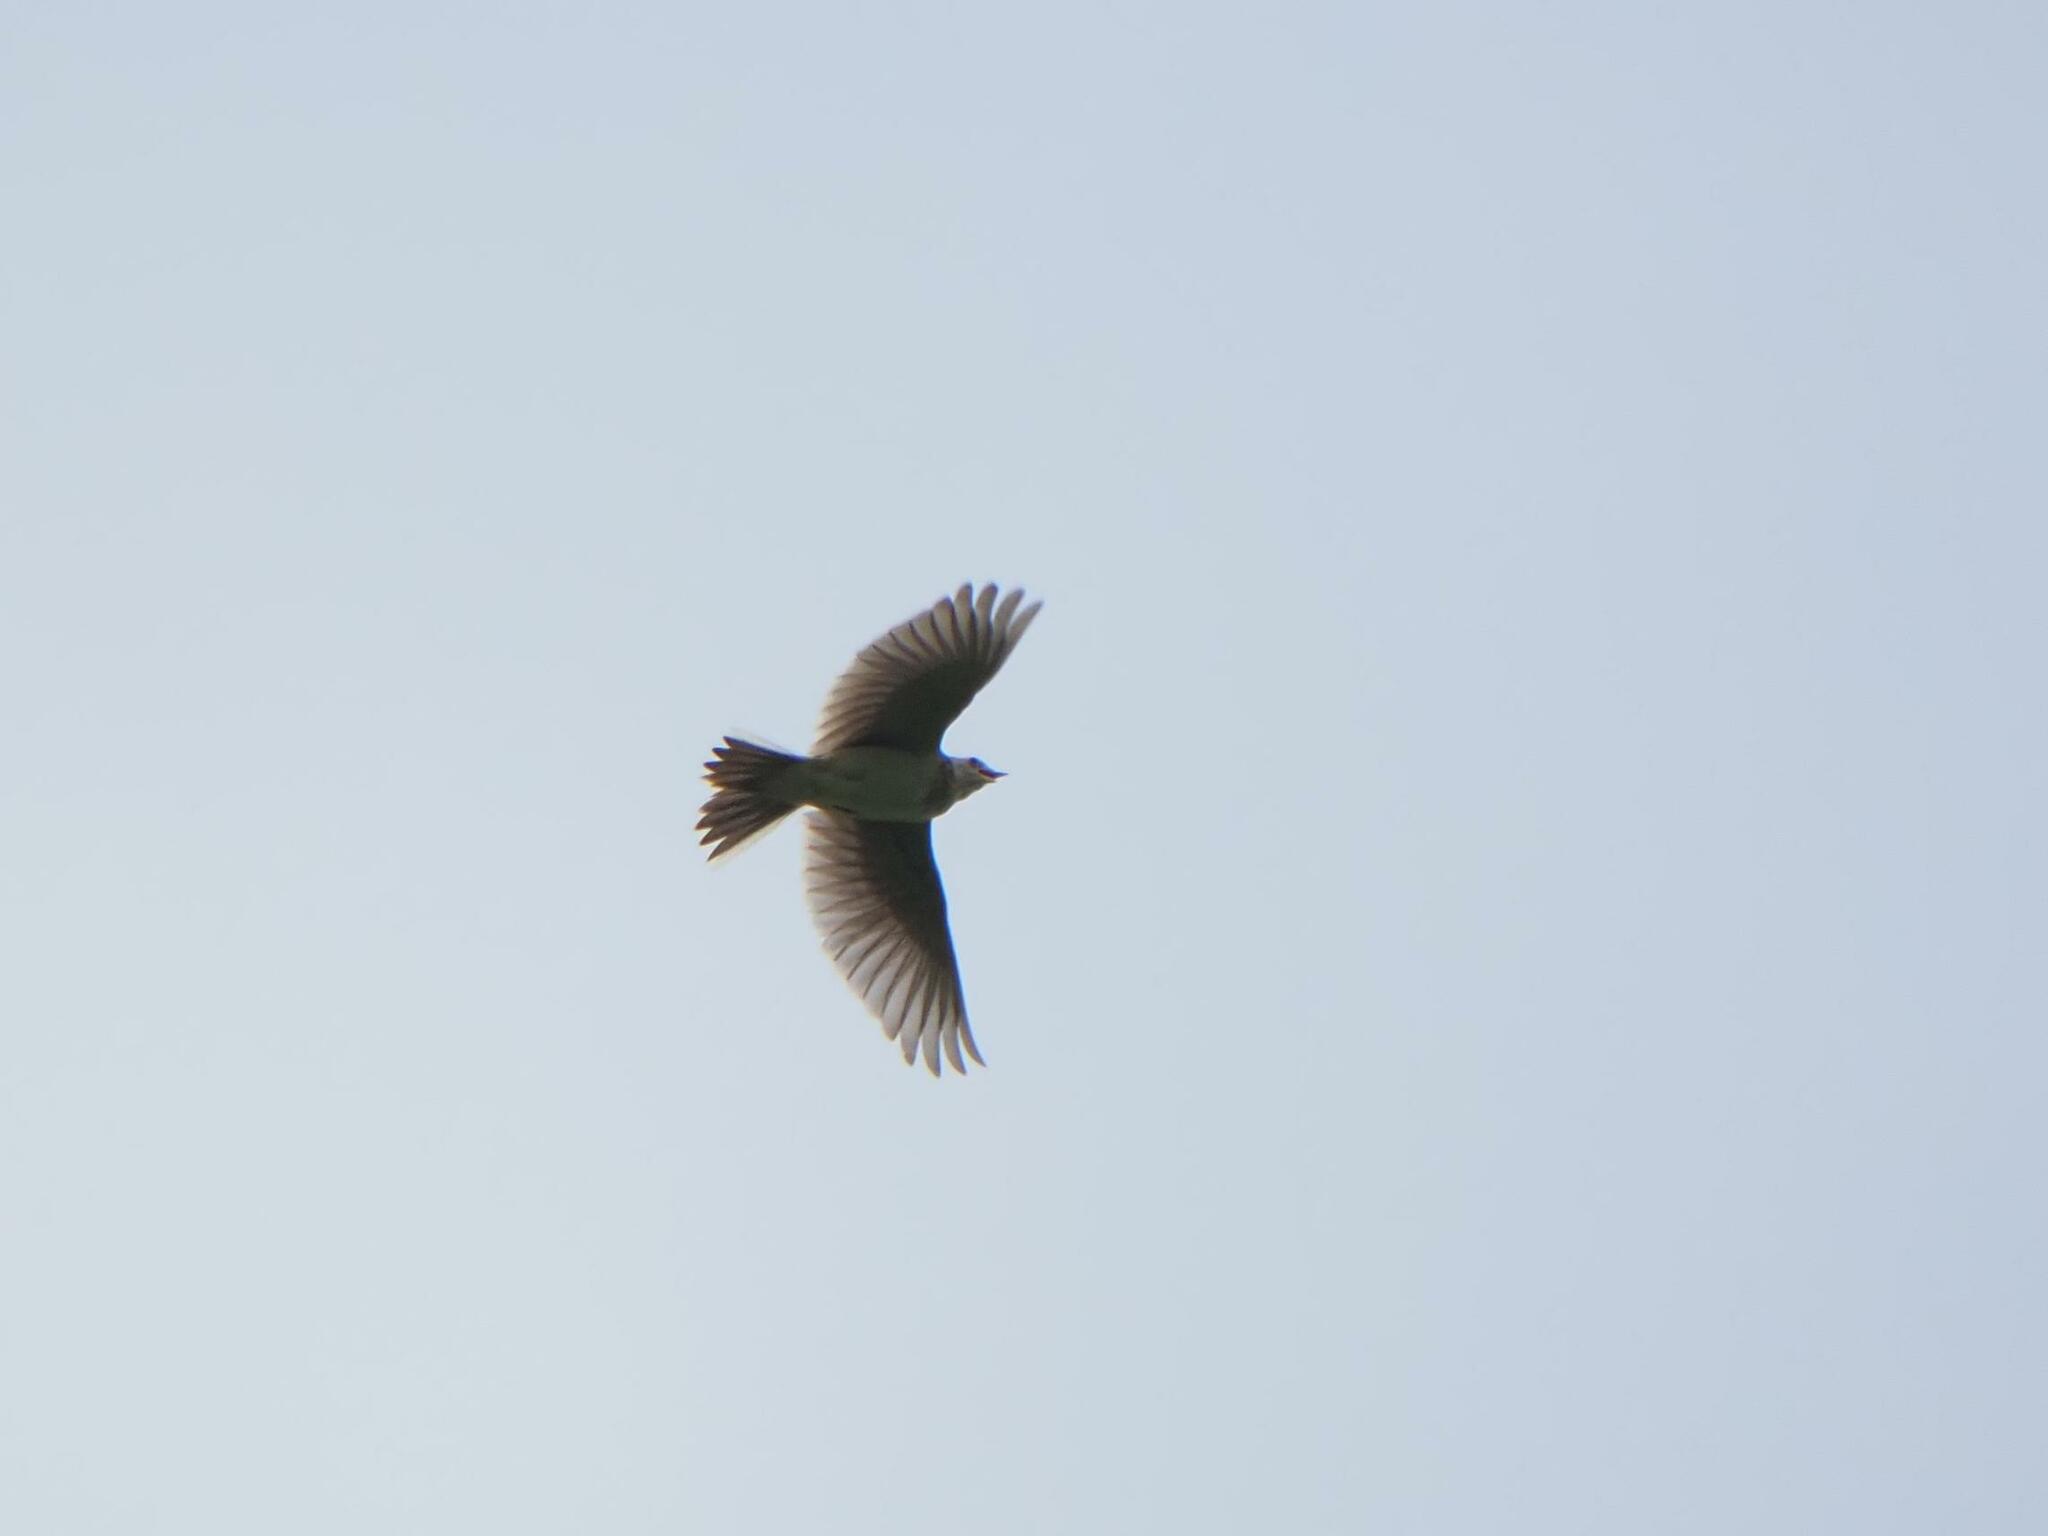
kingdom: Animalia
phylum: Chordata
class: Aves
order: Passeriformes
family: Alaudidae
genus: Alauda
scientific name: Alauda arvensis
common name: Eurasian skylark
